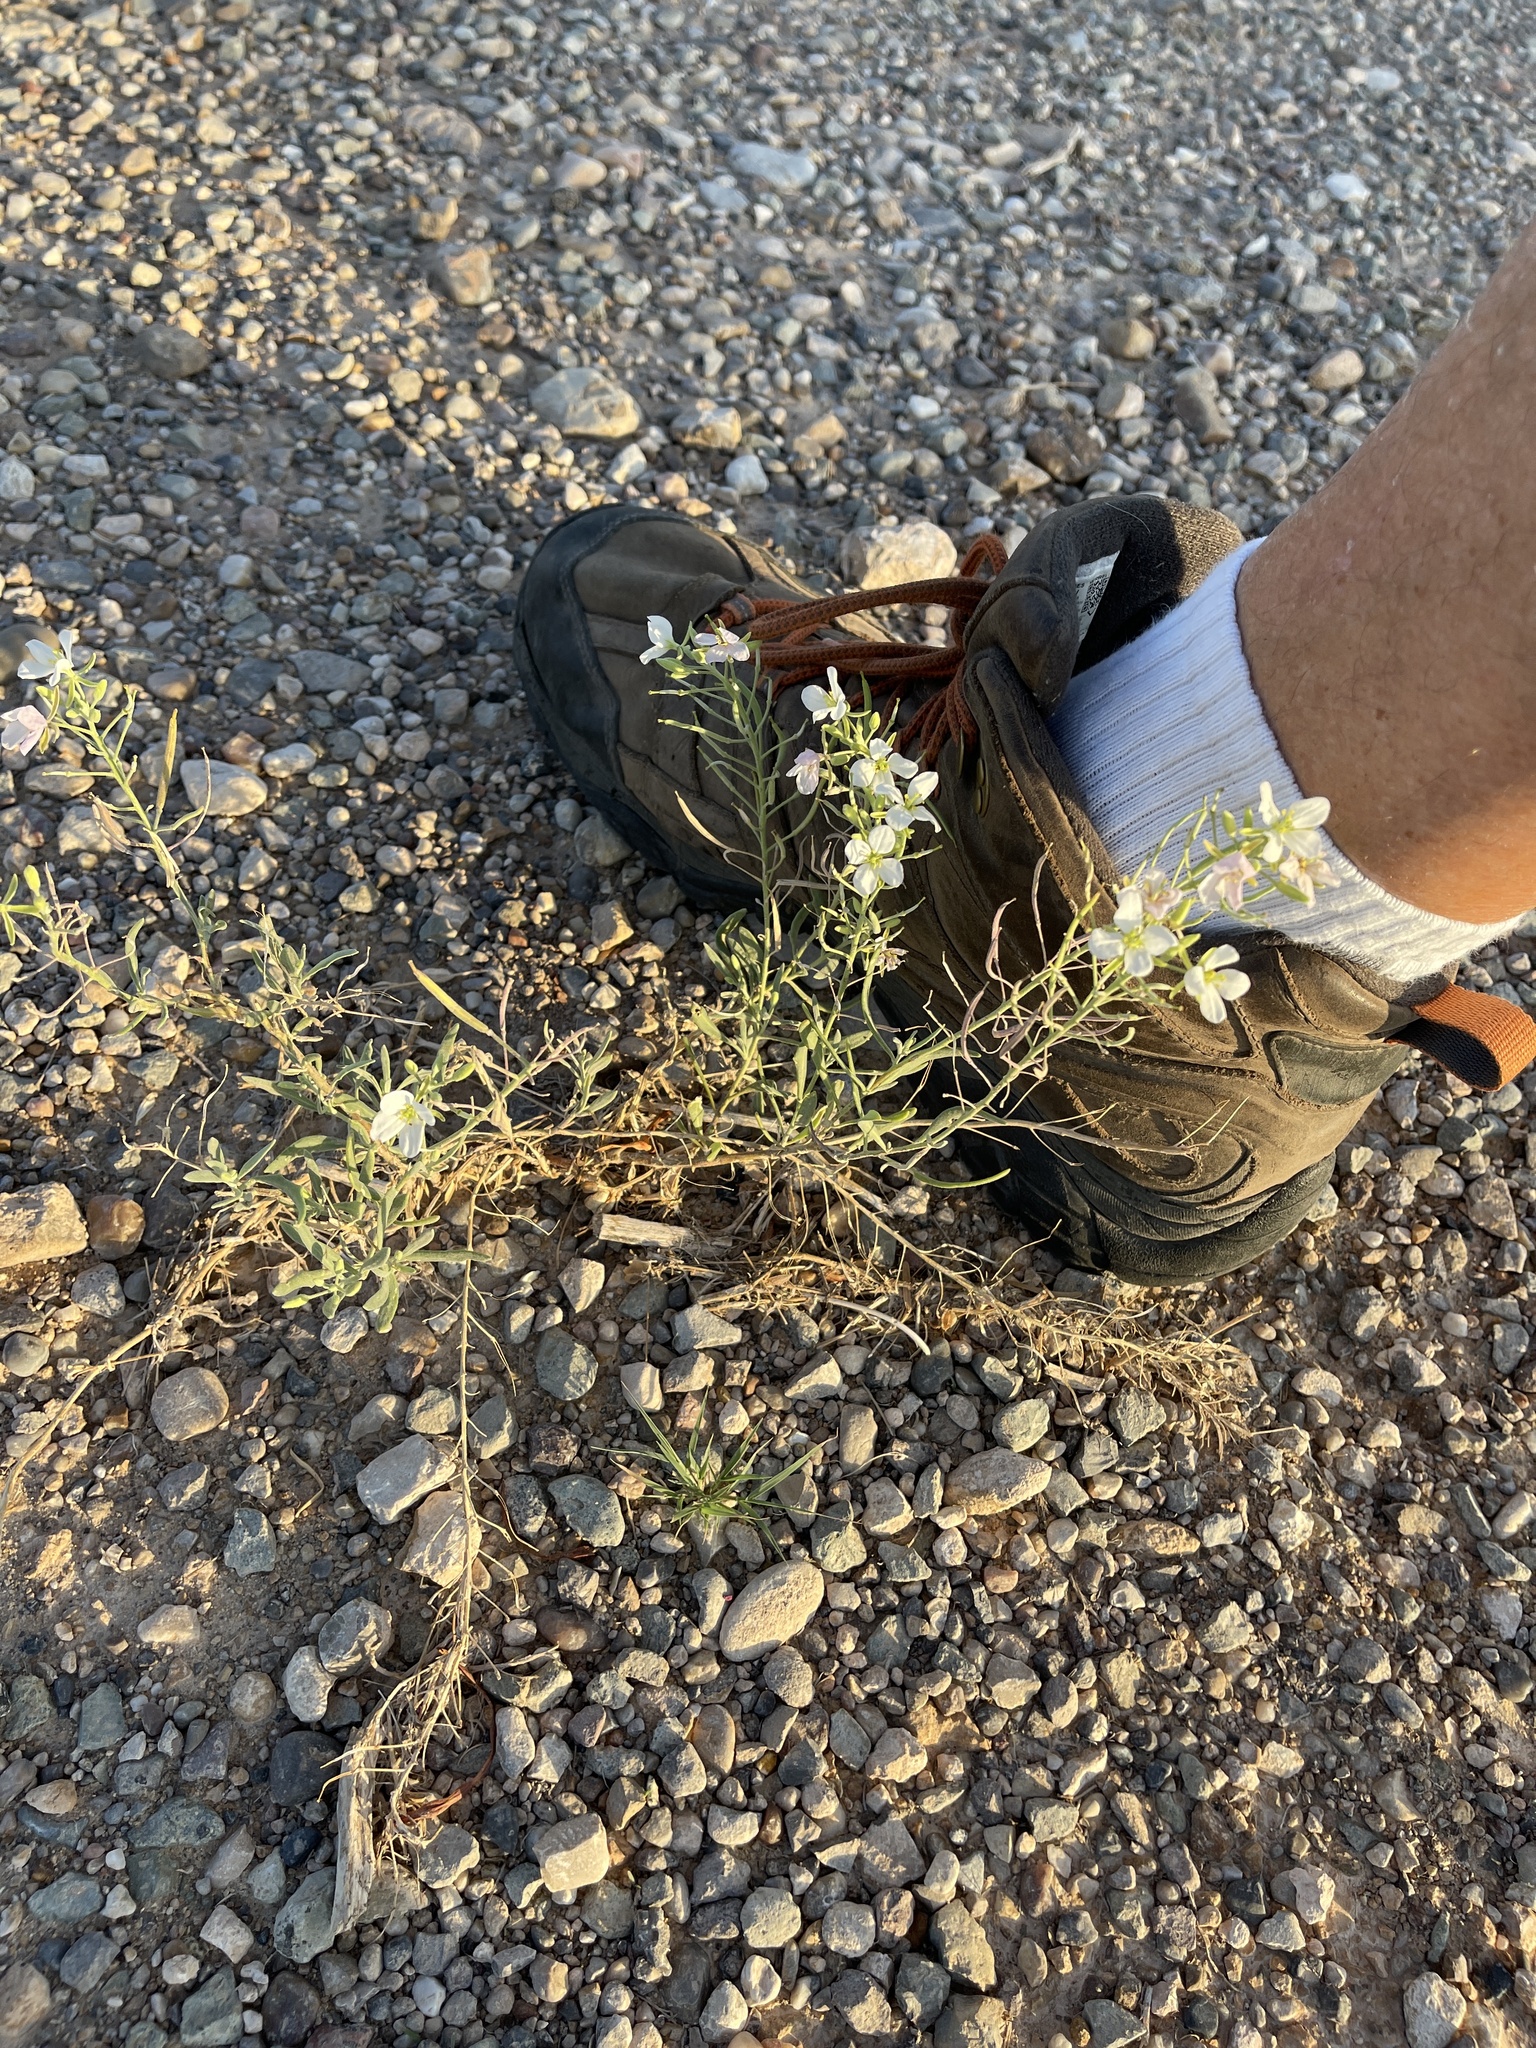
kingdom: Plantae
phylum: Tracheophyta
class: Magnoliopsida
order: Brassicales
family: Brassicaceae
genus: Nerisyrenia
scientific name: Nerisyrenia camporum
